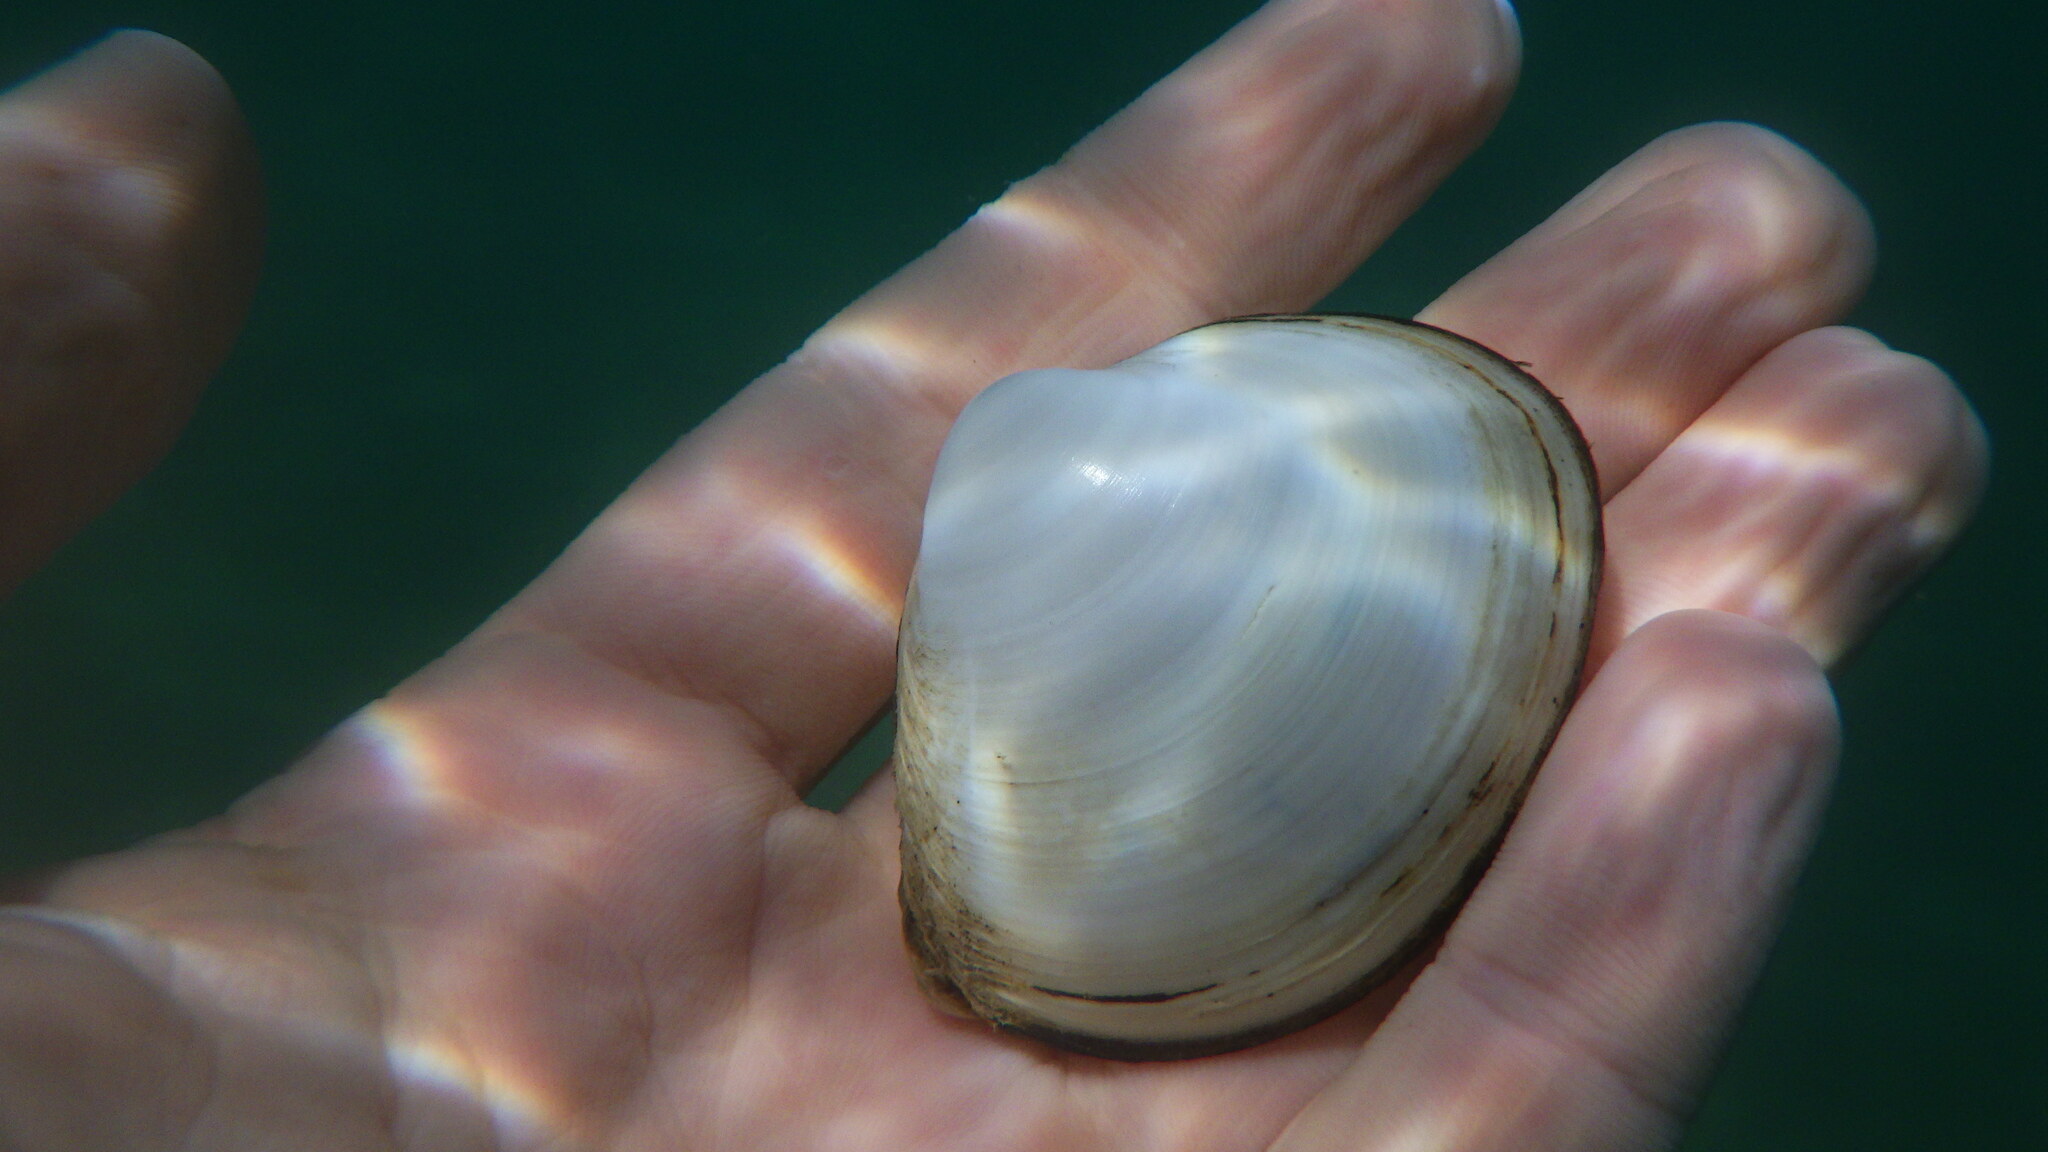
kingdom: Animalia
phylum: Mollusca
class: Bivalvia
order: Venerida
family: Mactridae
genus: Mactra
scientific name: Mactra stultorum
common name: Rayed trough shell
